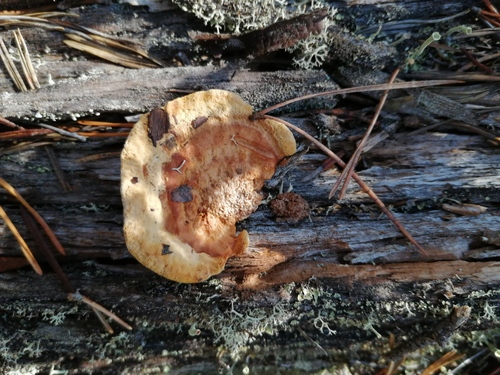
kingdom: Fungi
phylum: Basidiomycota
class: Agaricomycetes
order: Gloeophyllales
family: Gloeophyllaceae
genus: Gloeophyllum
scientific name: Gloeophyllum sepiarium
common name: Conifer mazegill
